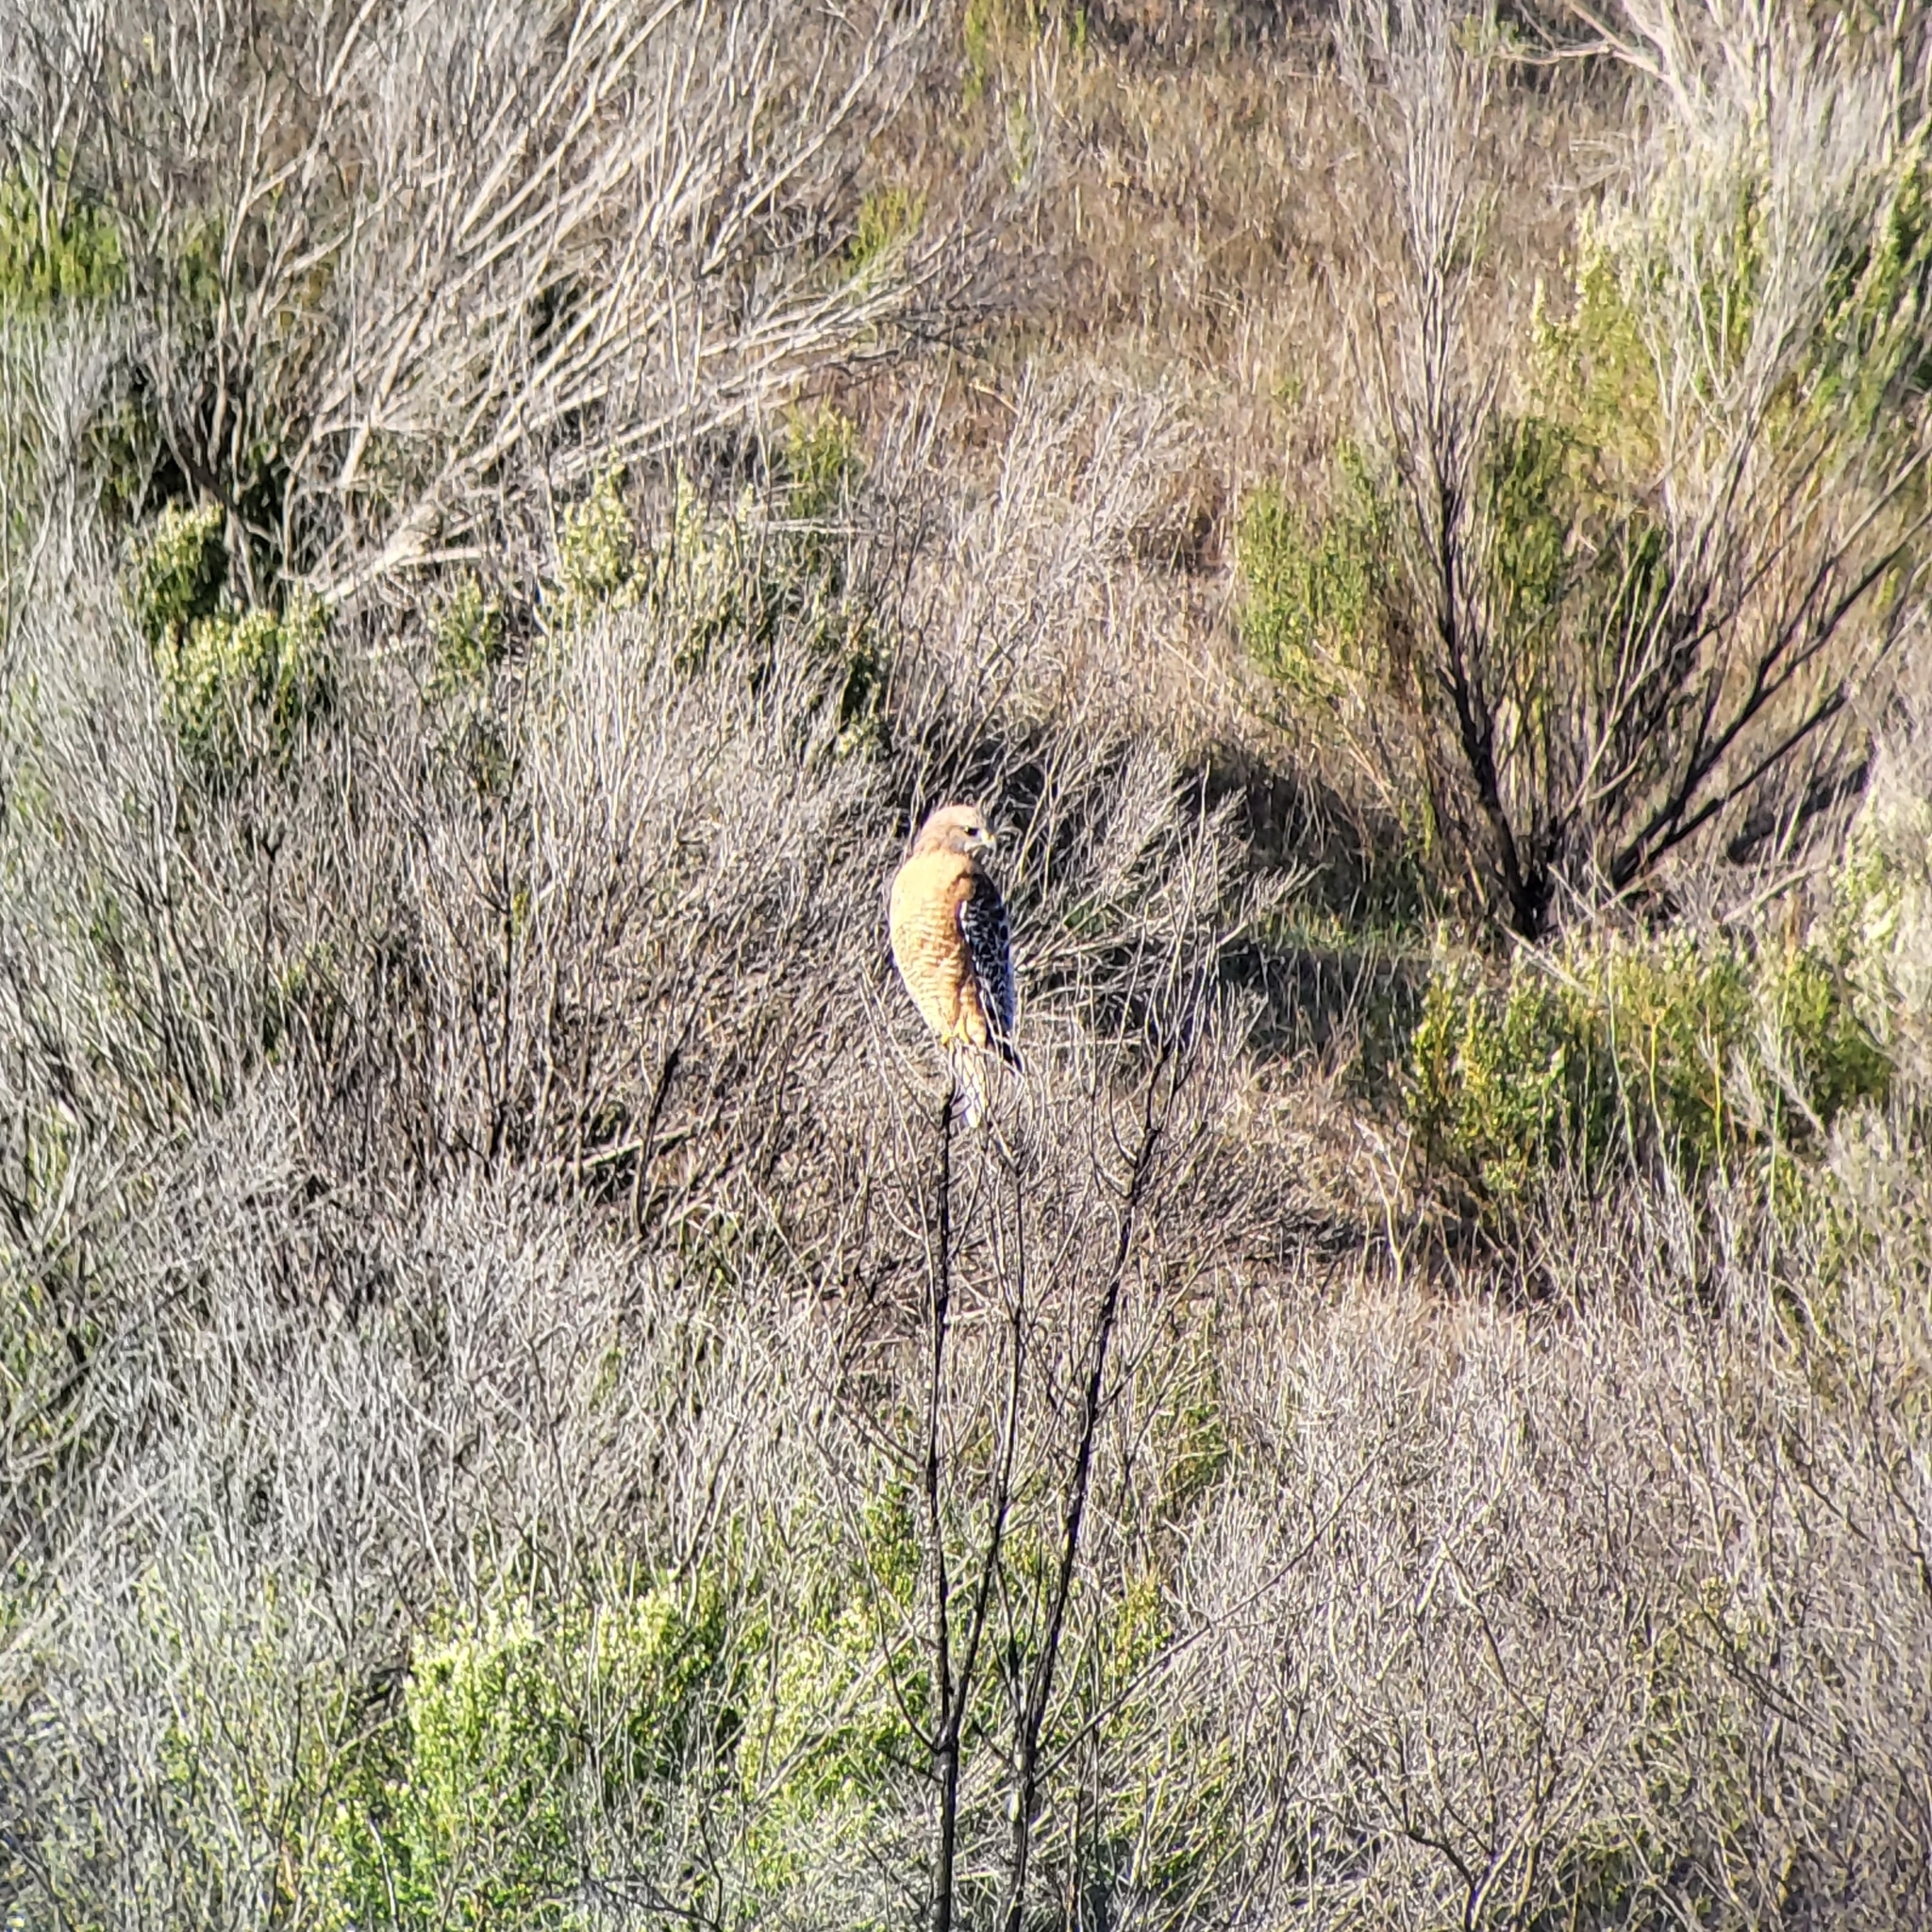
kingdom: Animalia
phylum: Chordata
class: Aves
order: Accipitriformes
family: Accipitridae
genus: Buteo
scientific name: Buteo lineatus
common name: Red-shouldered hawk
